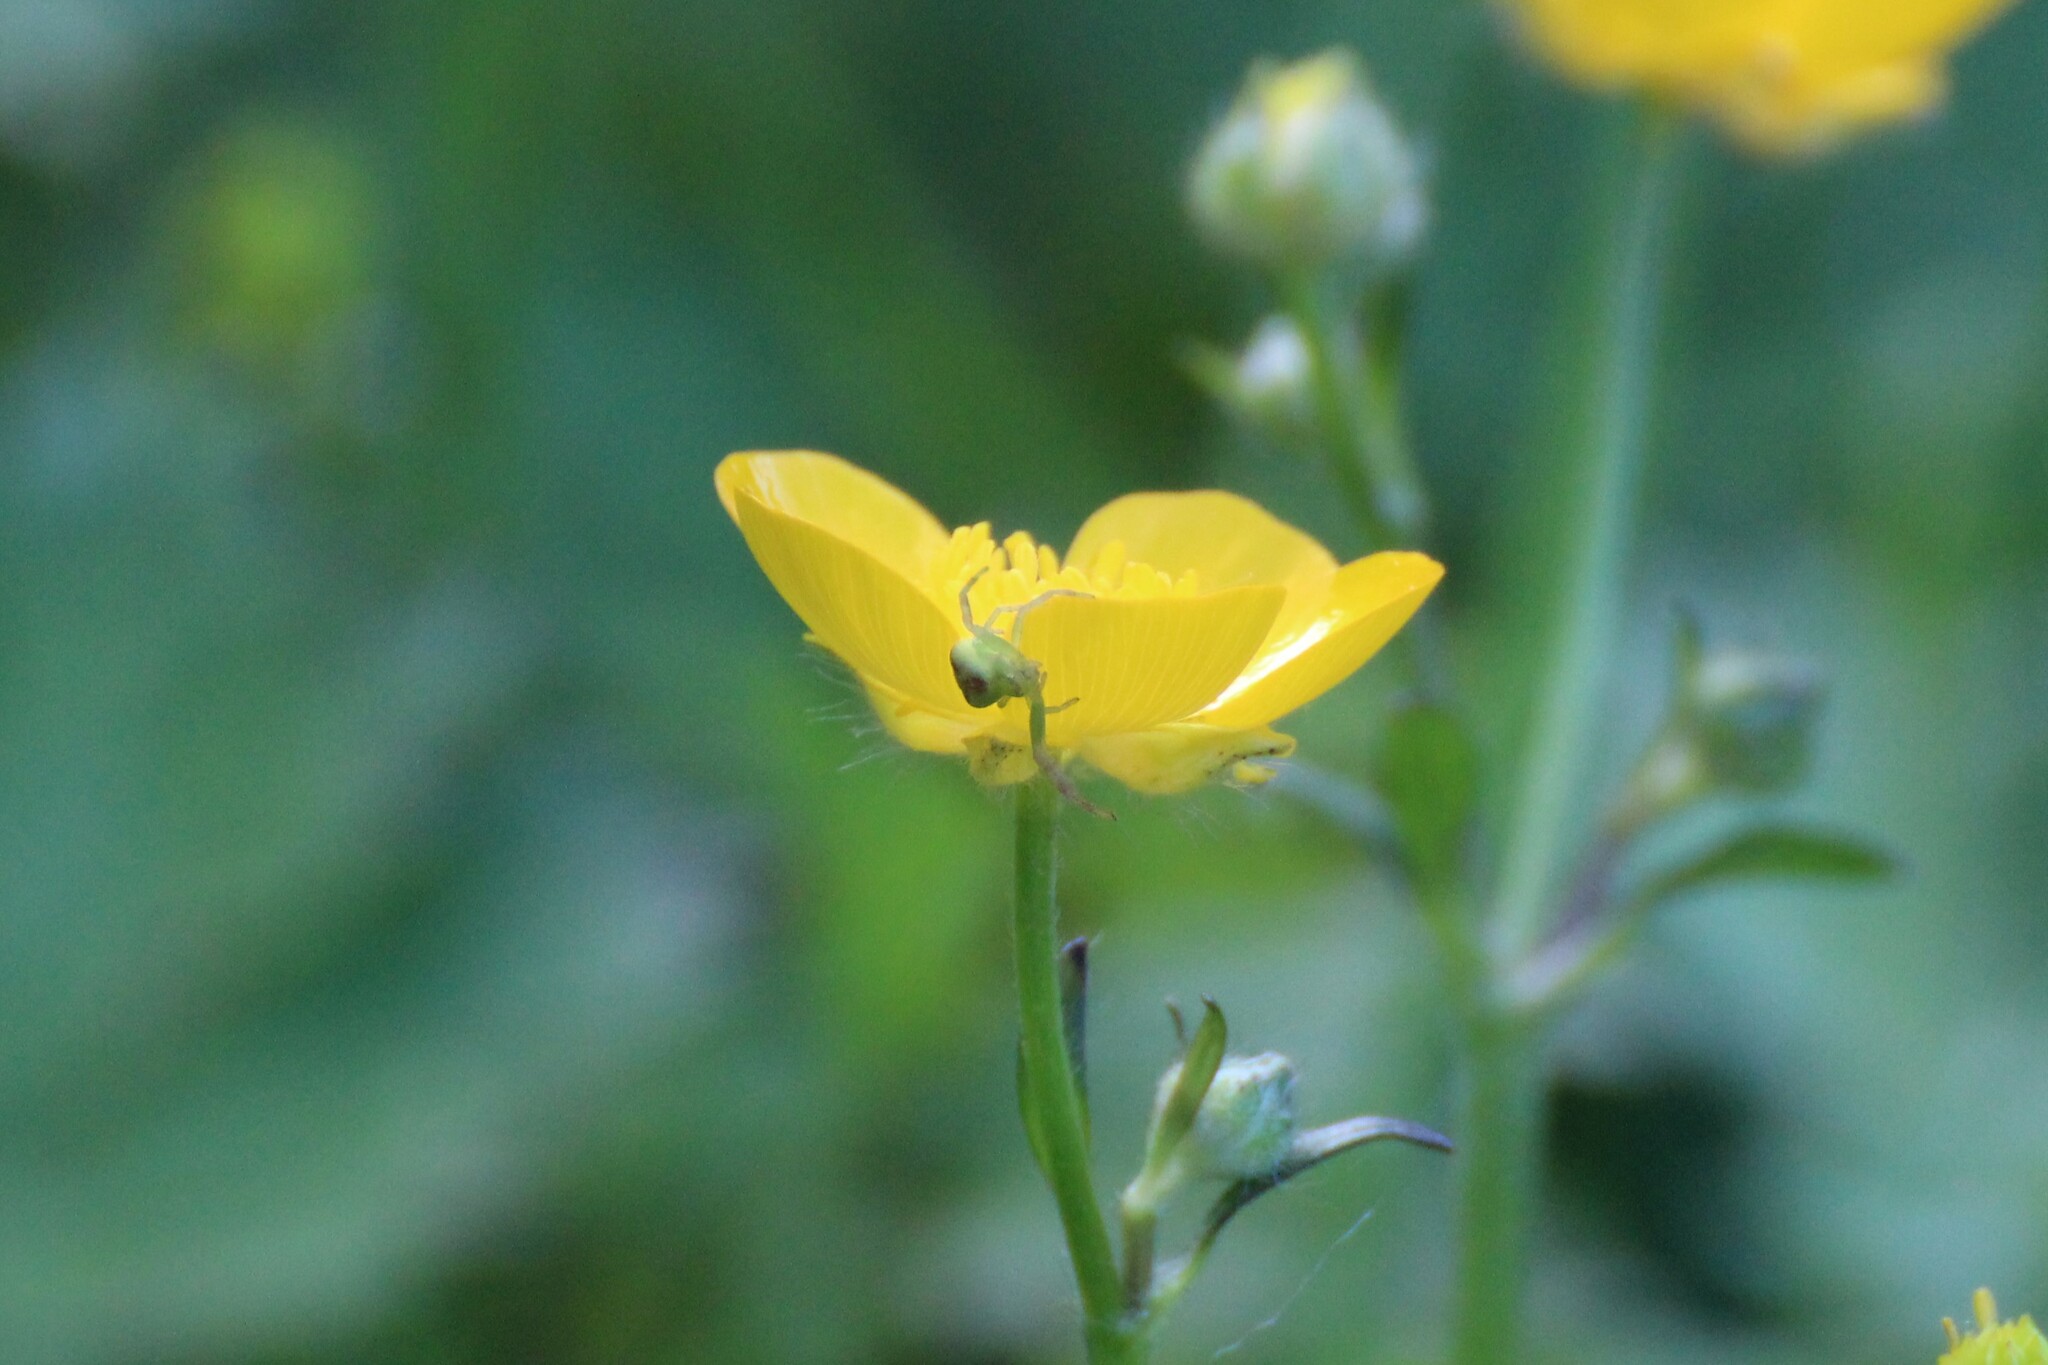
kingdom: Animalia
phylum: Arthropoda
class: Arachnida
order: Araneae
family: Thomisidae
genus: Ebrechtella
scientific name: Ebrechtella tricuspidata
